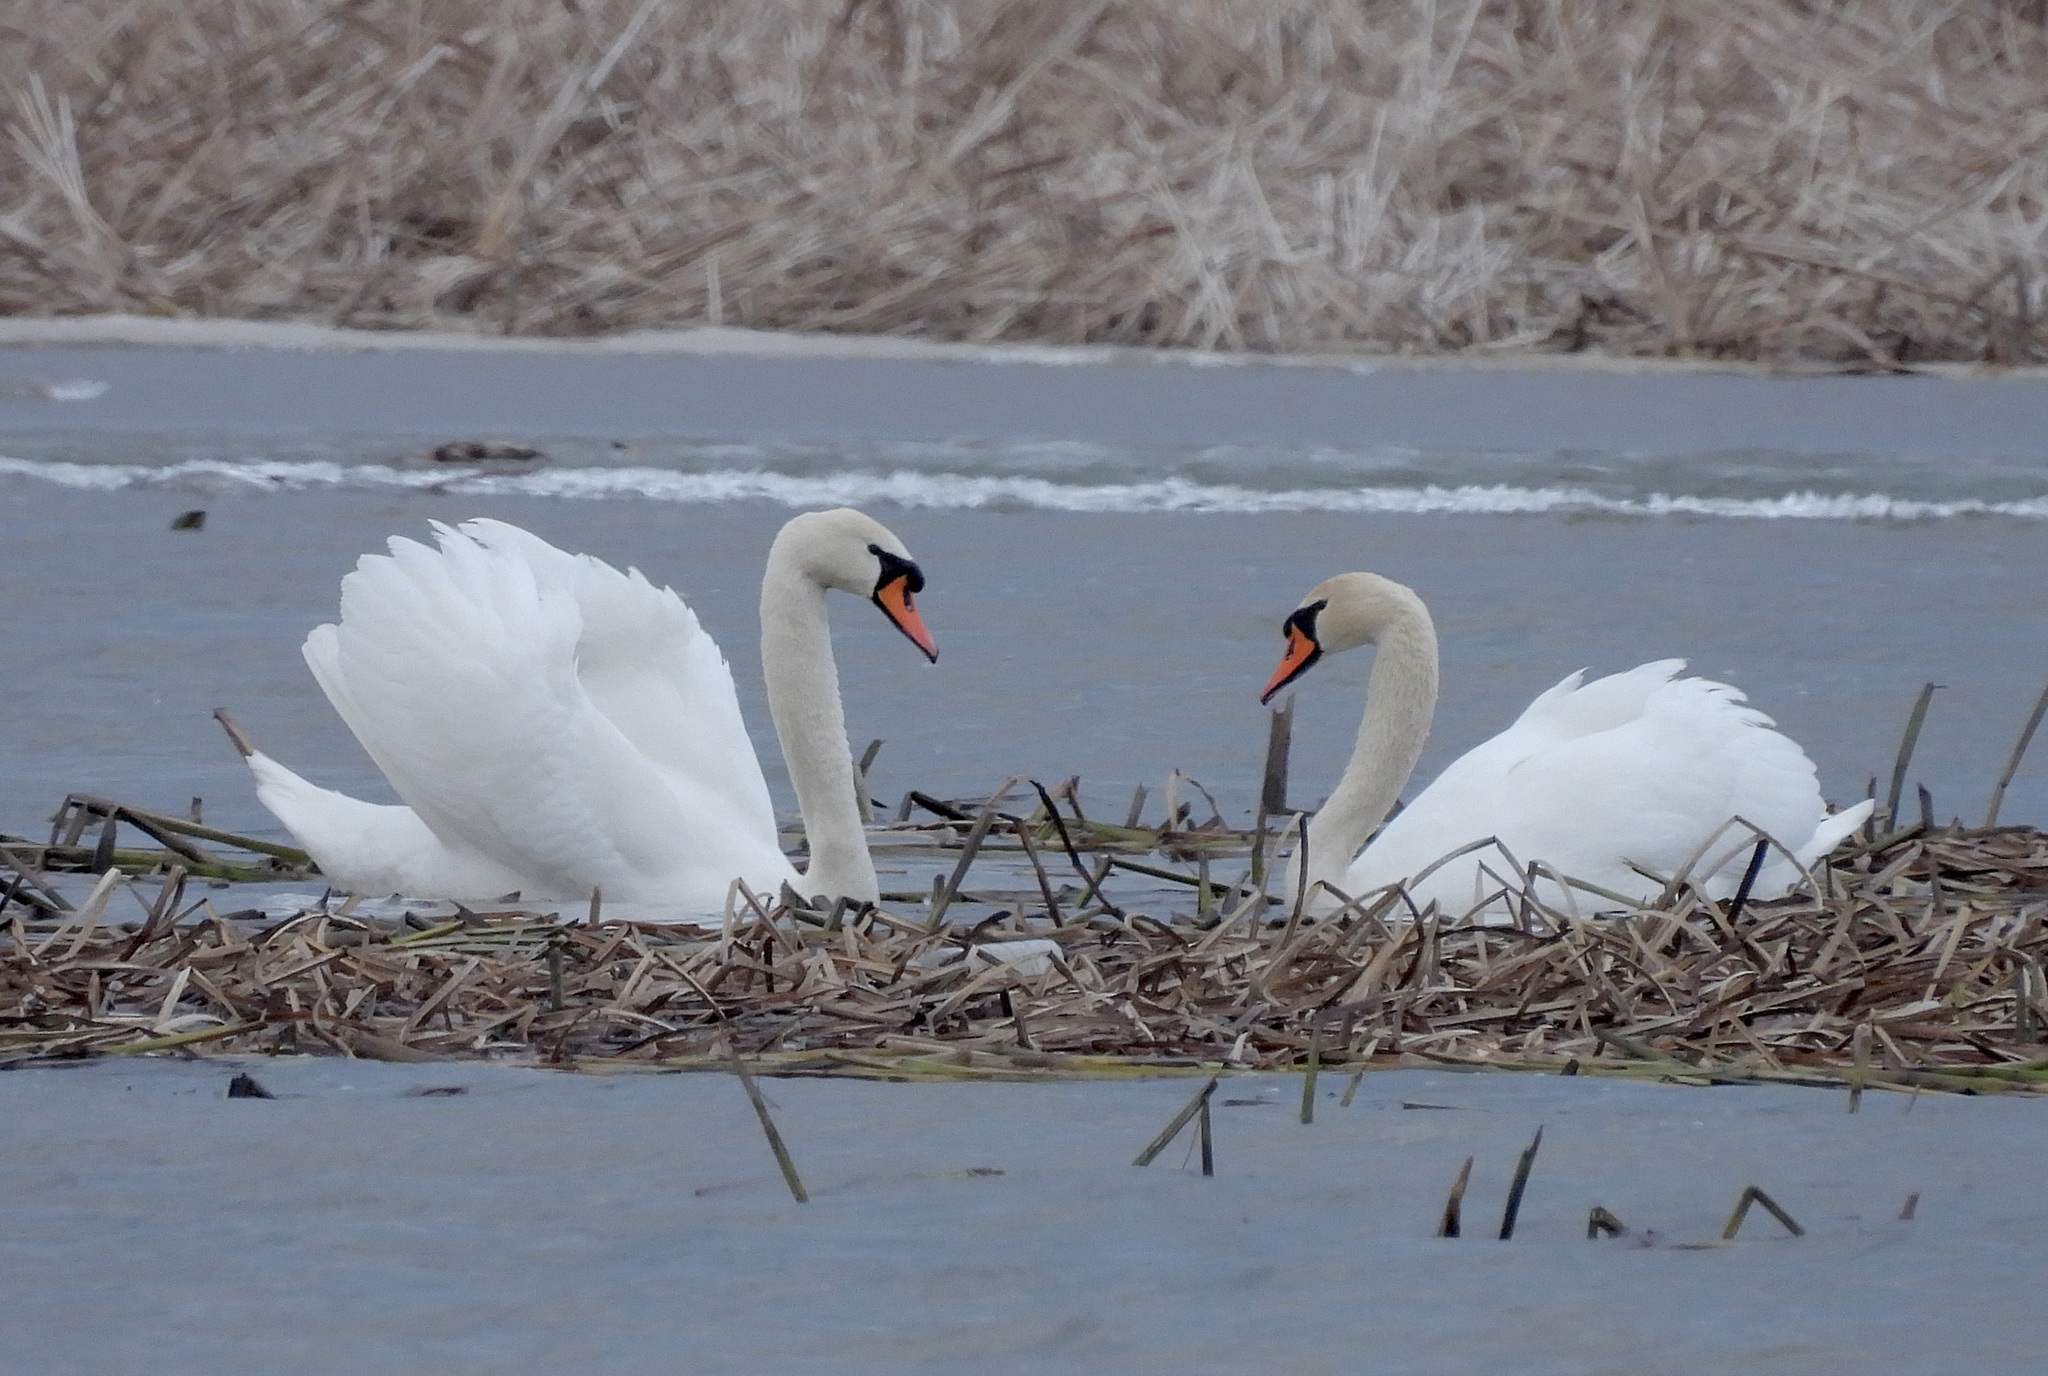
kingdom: Animalia
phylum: Chordata
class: Aves
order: Anseriformes
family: Anatidae
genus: Cygnus
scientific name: Cygnus olor
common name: Mute swan
